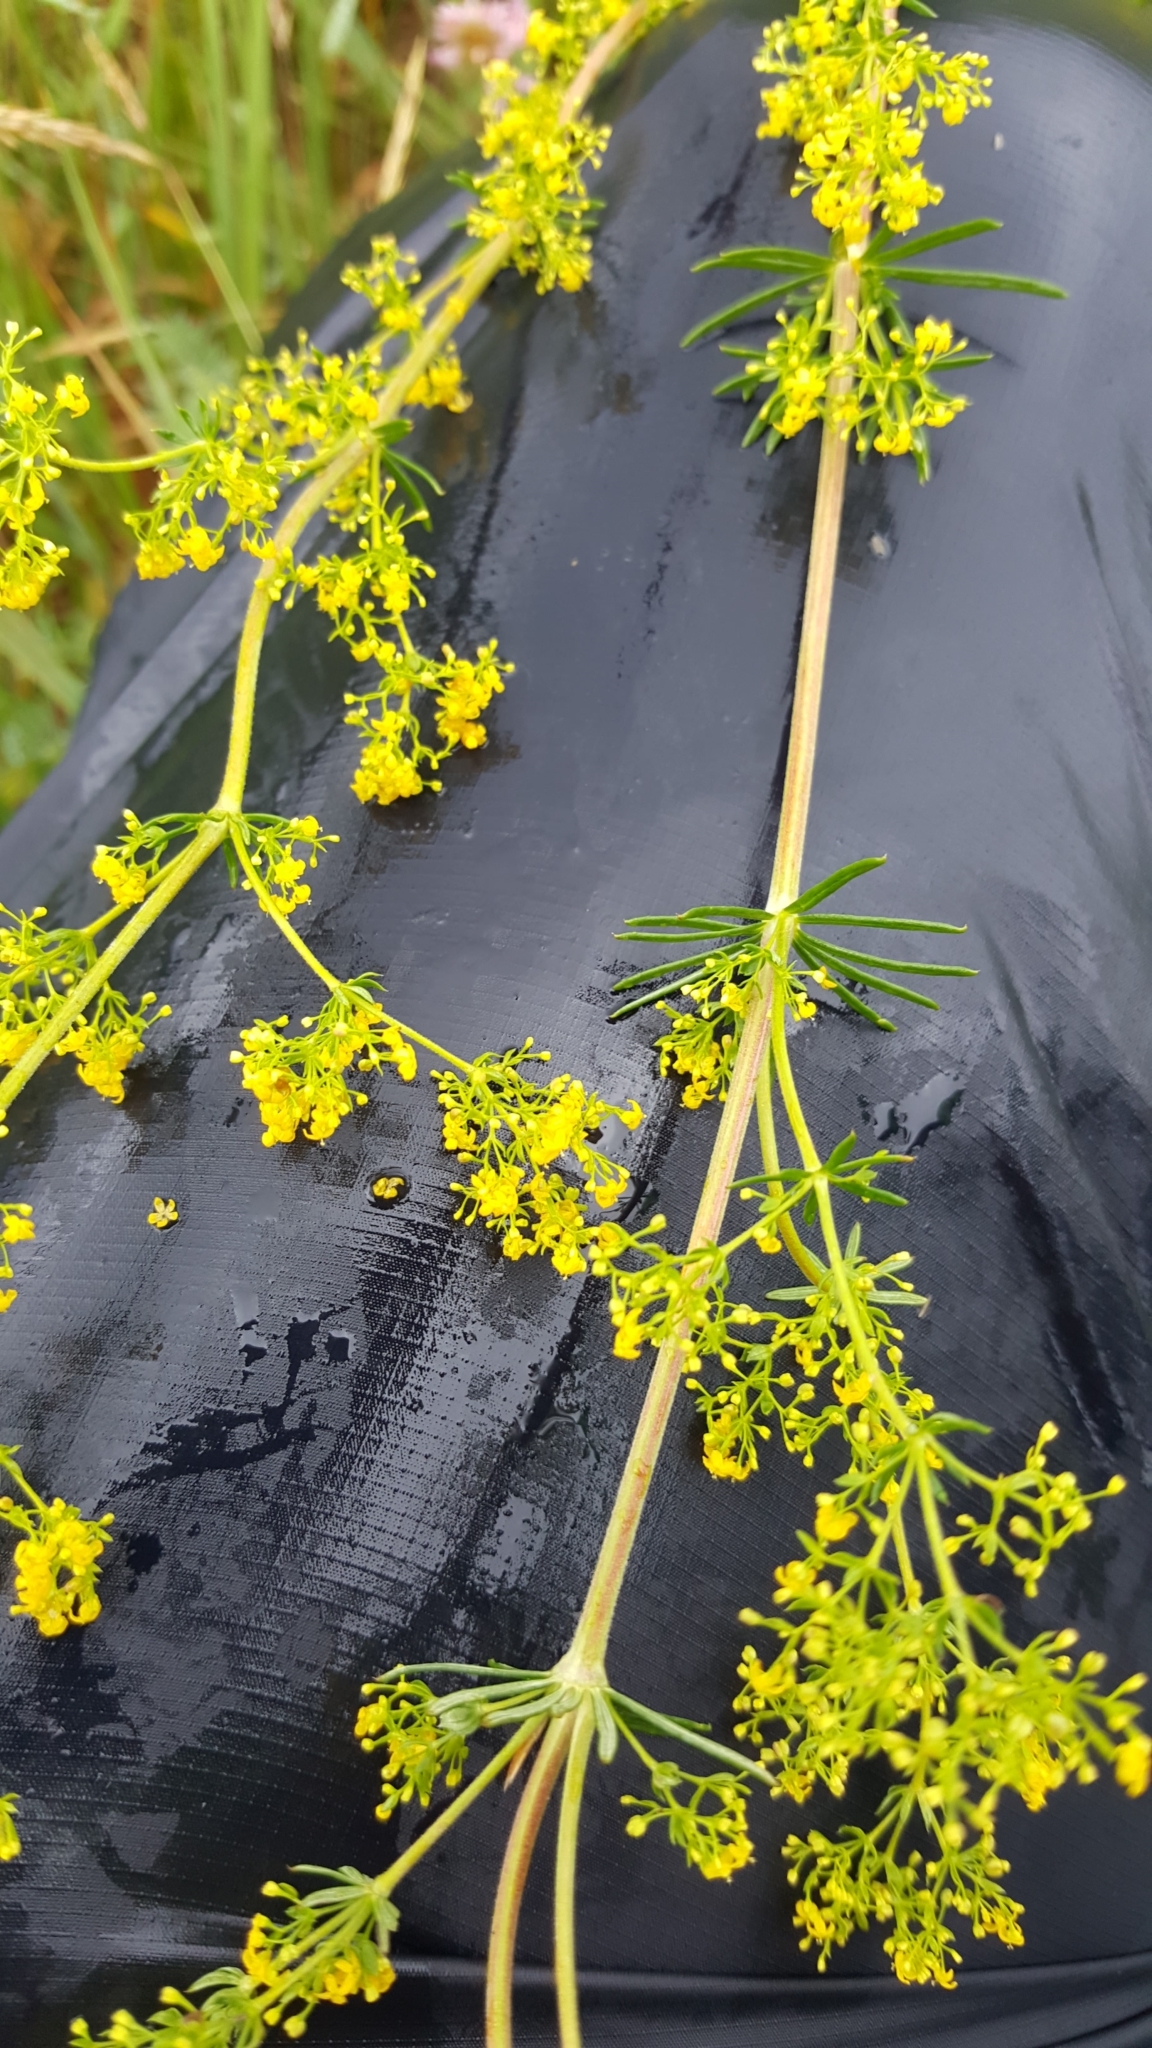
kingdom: Plantae
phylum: Tracheophyta
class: Magnoliopsida
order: Gentianales
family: Rubiaceae
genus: Galium
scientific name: Galium verum
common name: Lady's bedstraw
